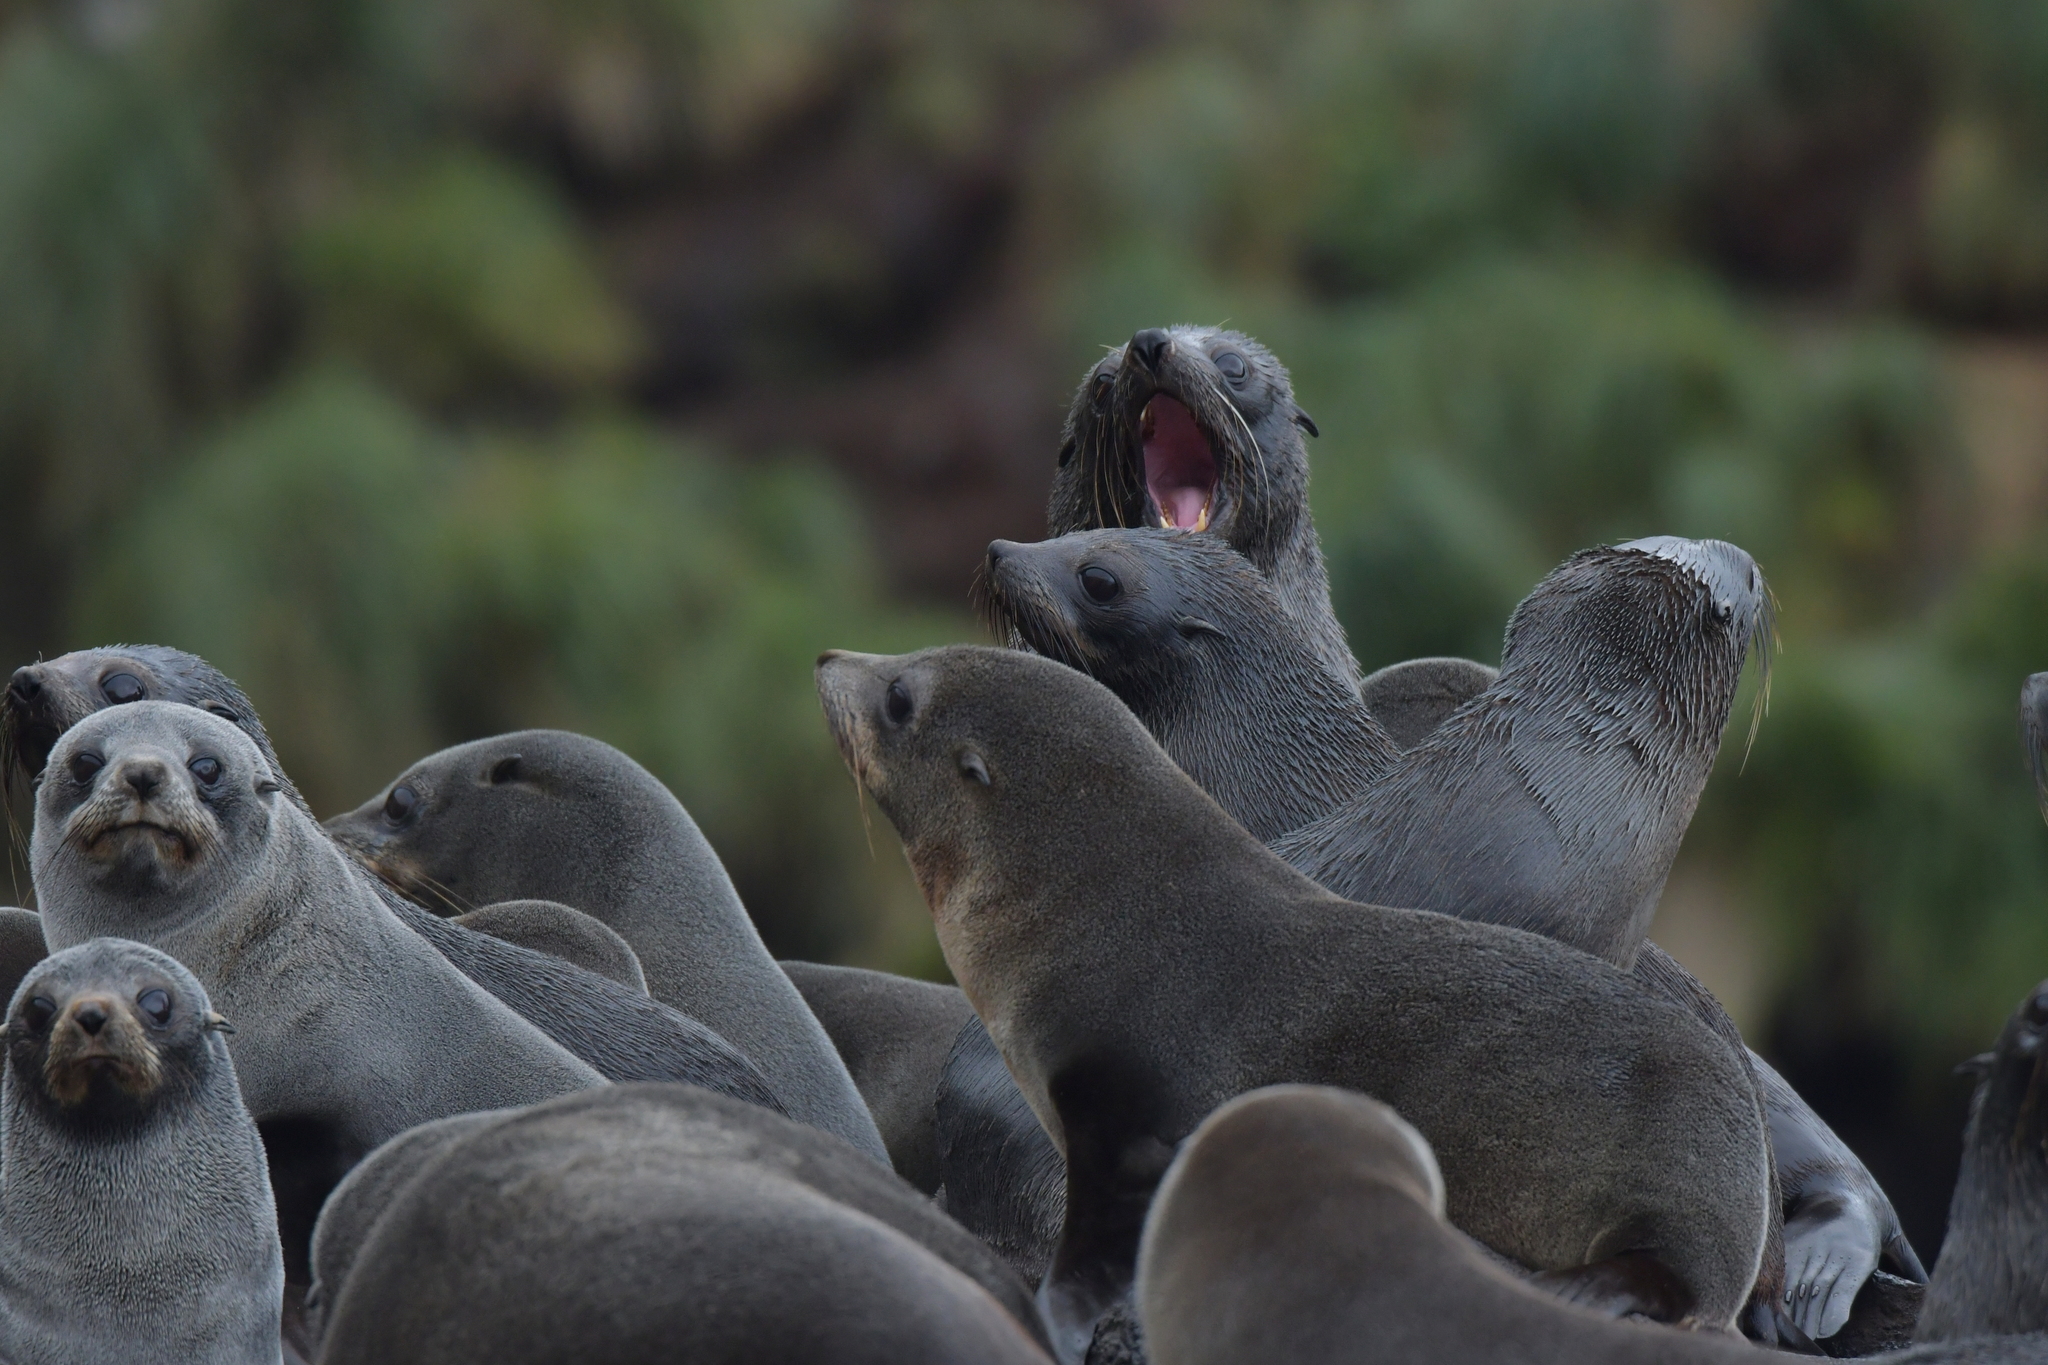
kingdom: Animalia
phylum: Chordata
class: Mammalia
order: Carnivora
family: Otariidae
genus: Arctocephalus
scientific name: Arctocephalus forsteri
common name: New zealand fur seal
